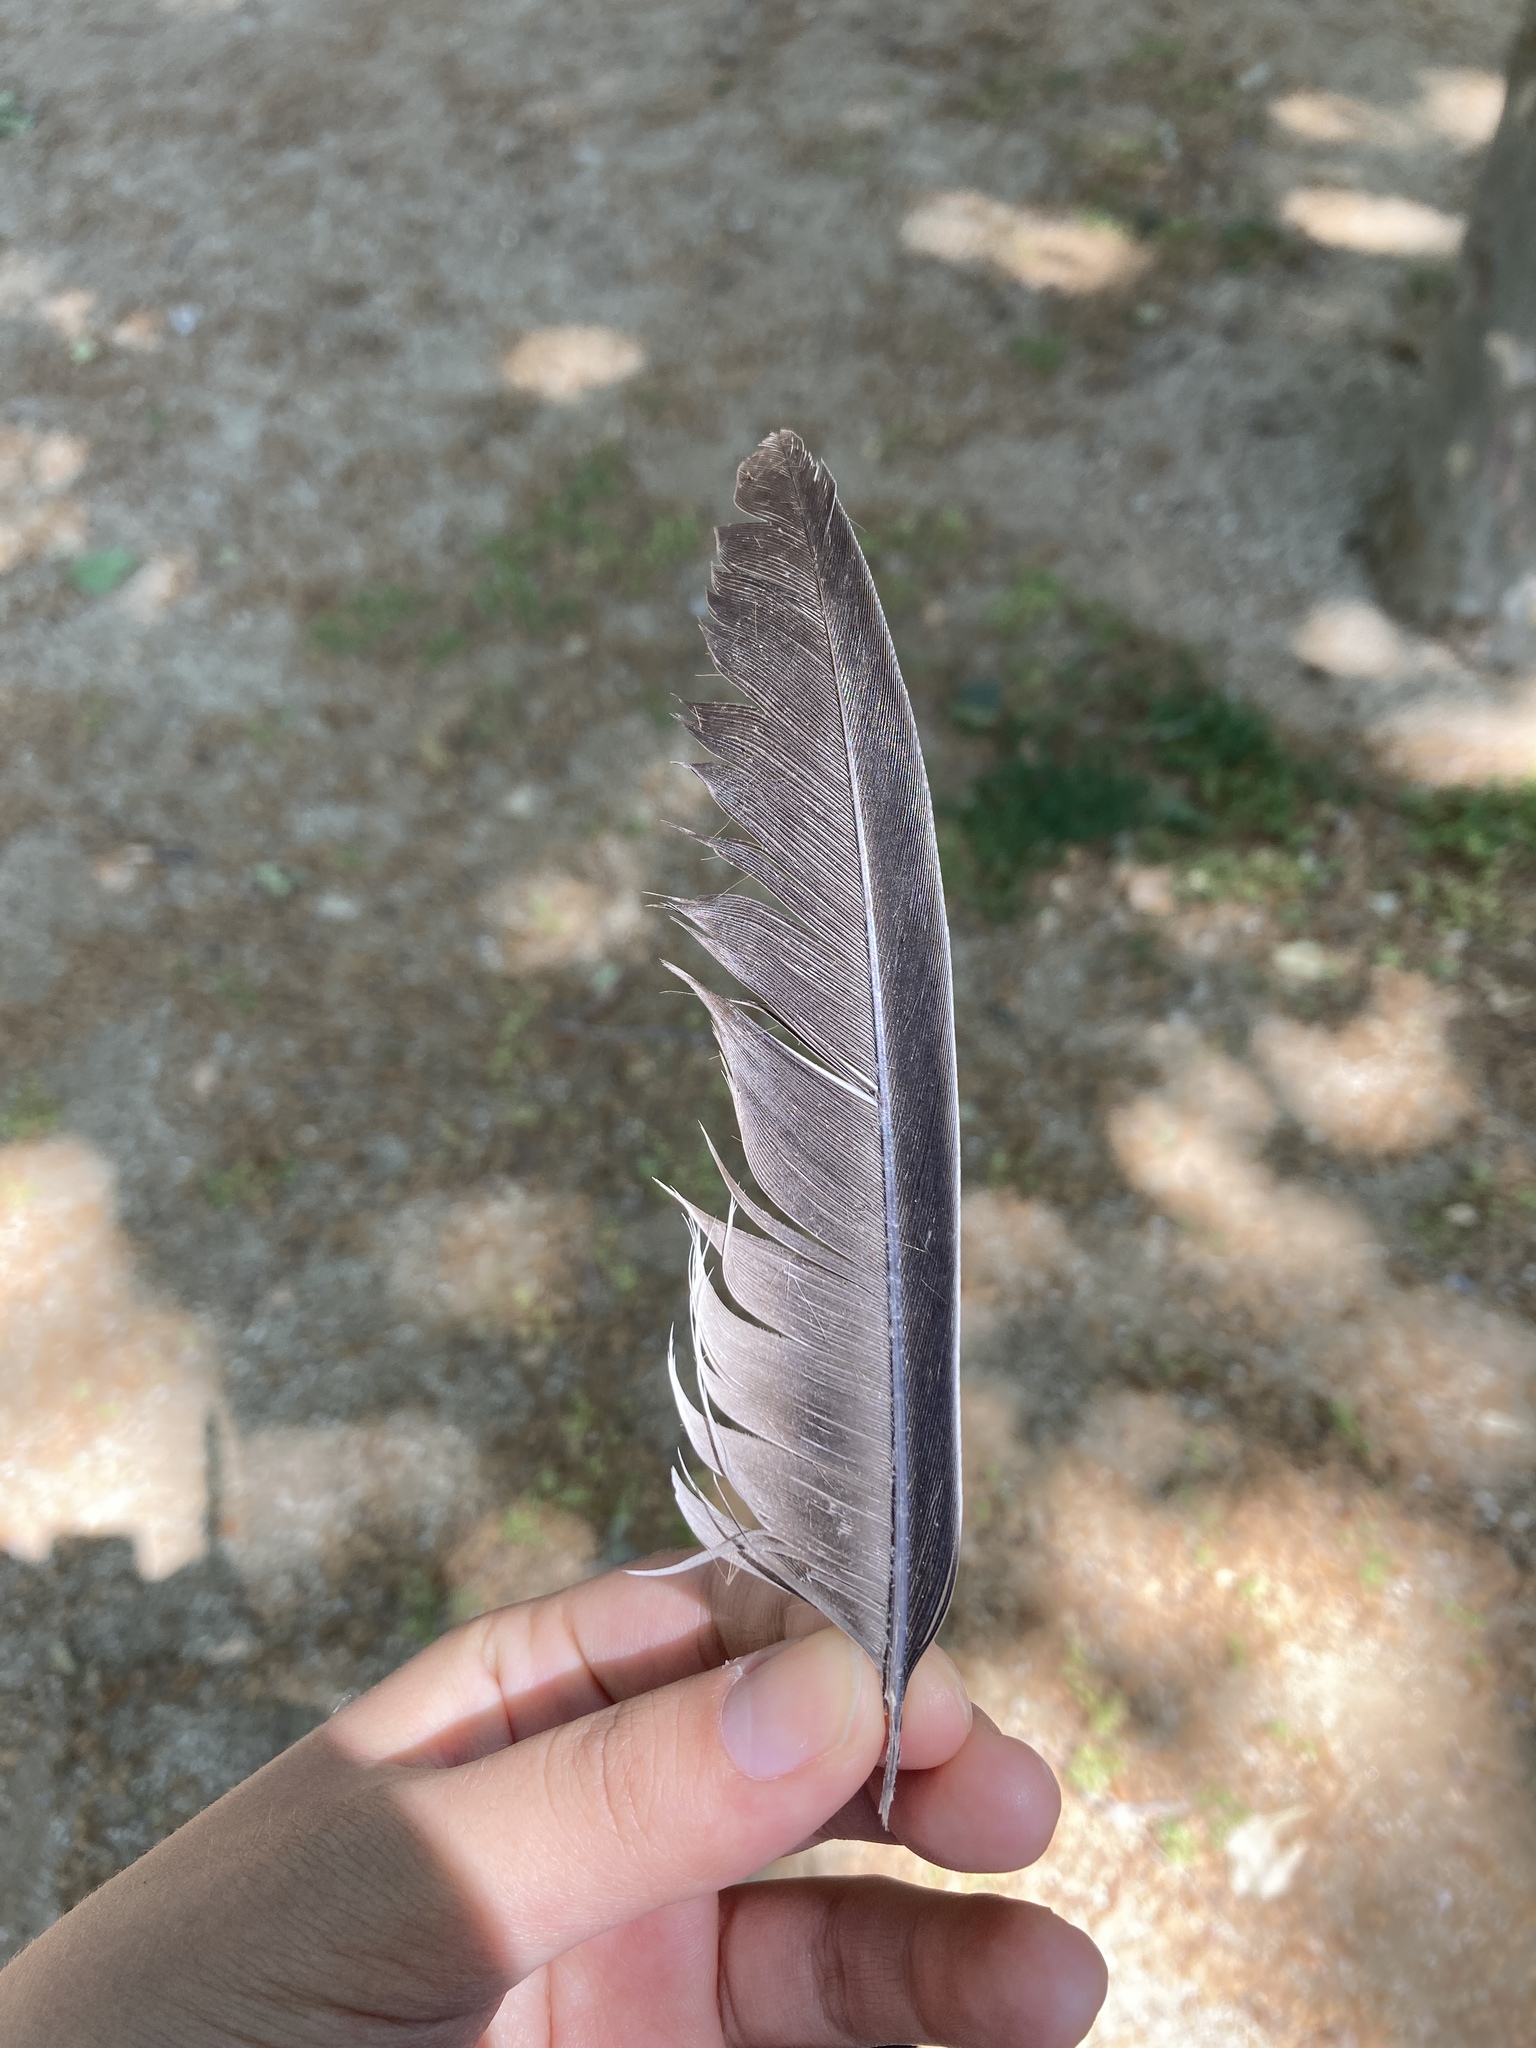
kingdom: Animalia
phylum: Chordata
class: Aves
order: Columbiformes
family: Columbidae
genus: Columba
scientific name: Columba palumbus
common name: Common wood pigeon
